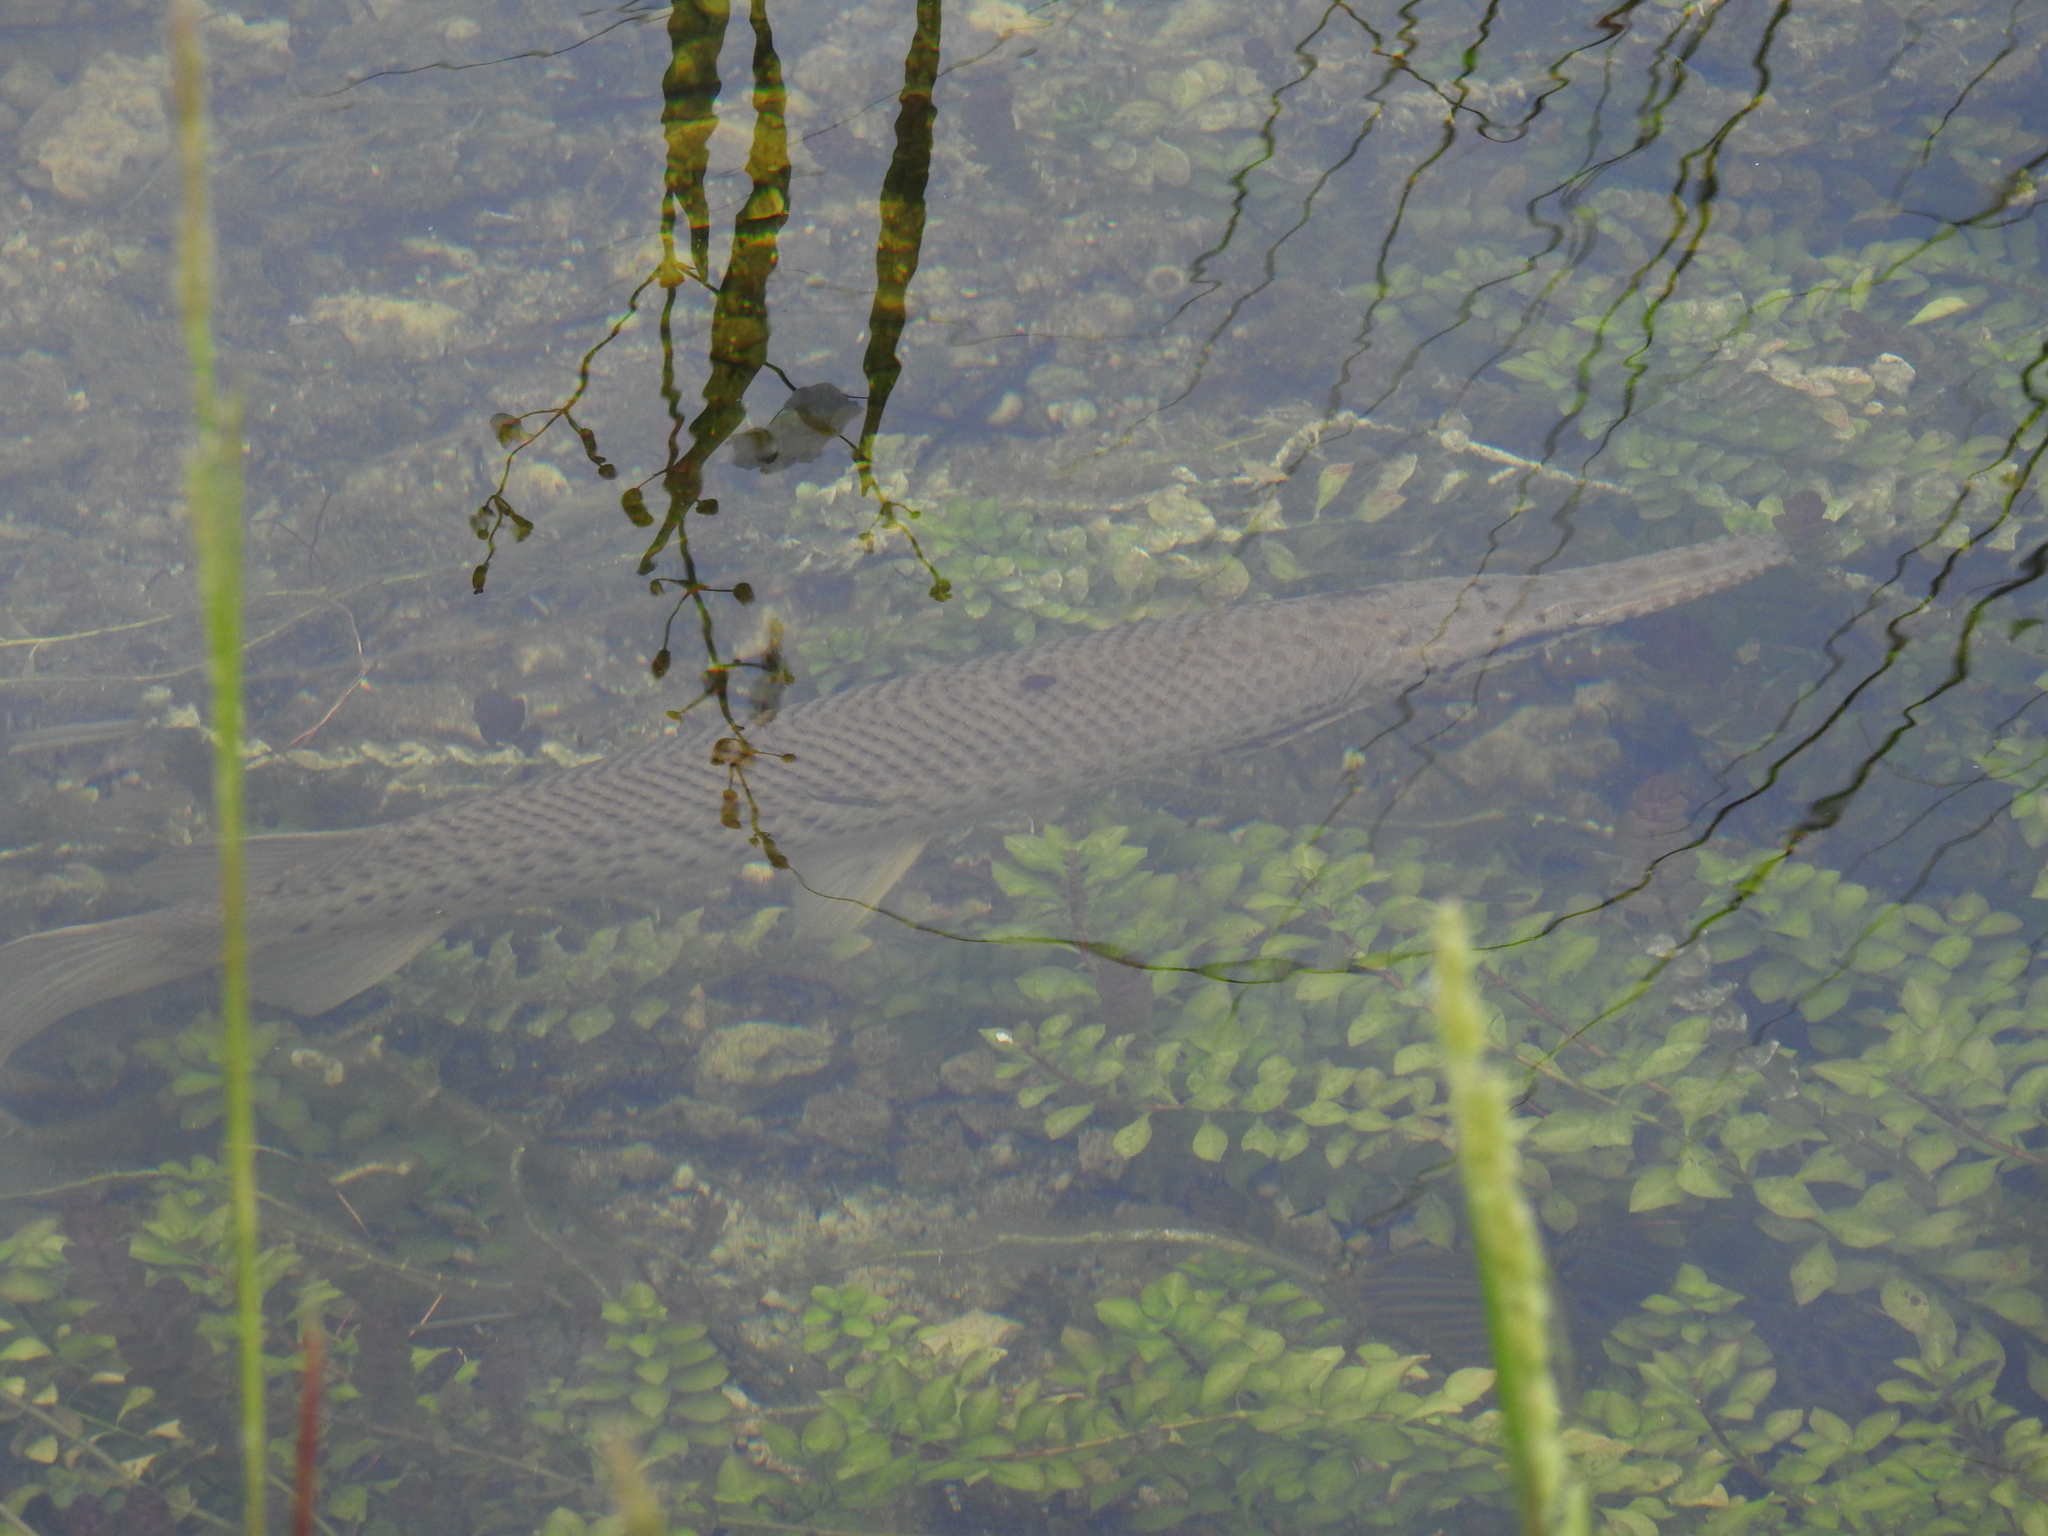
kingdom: Animalia
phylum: Chordata
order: Lepisosteiformes
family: Lepisosteidae
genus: Lepisosteus
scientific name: Lepisosteus platyrhincus
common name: Florida gar
